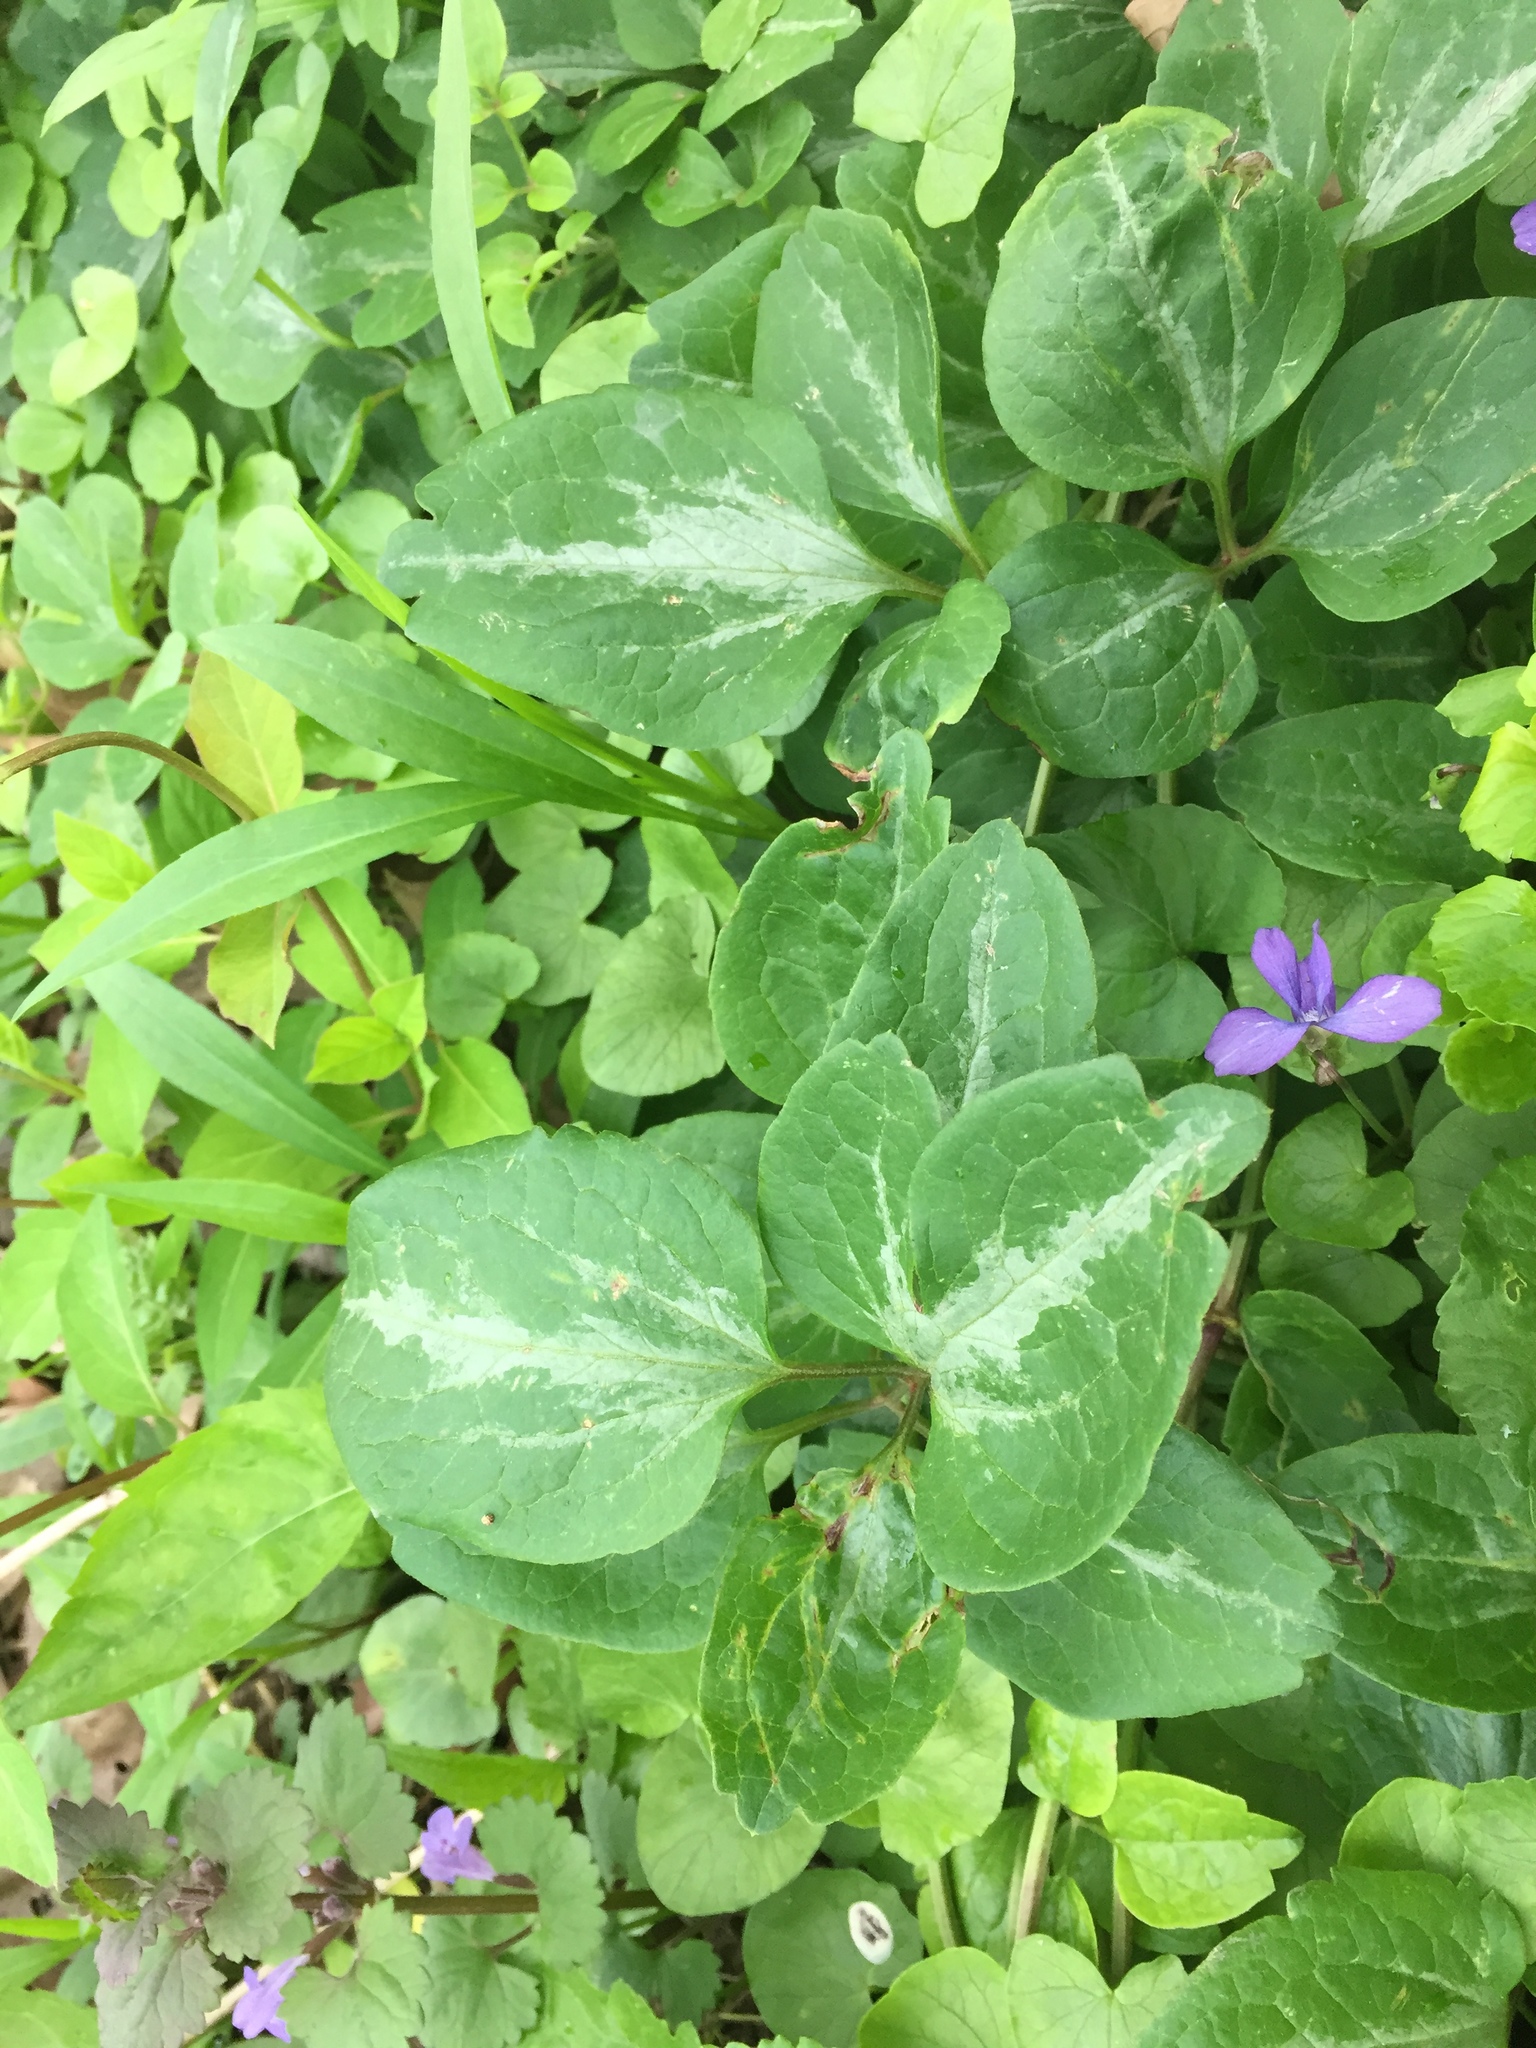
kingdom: Plantae
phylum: Tracheophyta
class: Magnoliopsida
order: Ranunculales
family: Ranunculaceae
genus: Clematis
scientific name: Clematis terniflora
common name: Sweet autumn clematis
